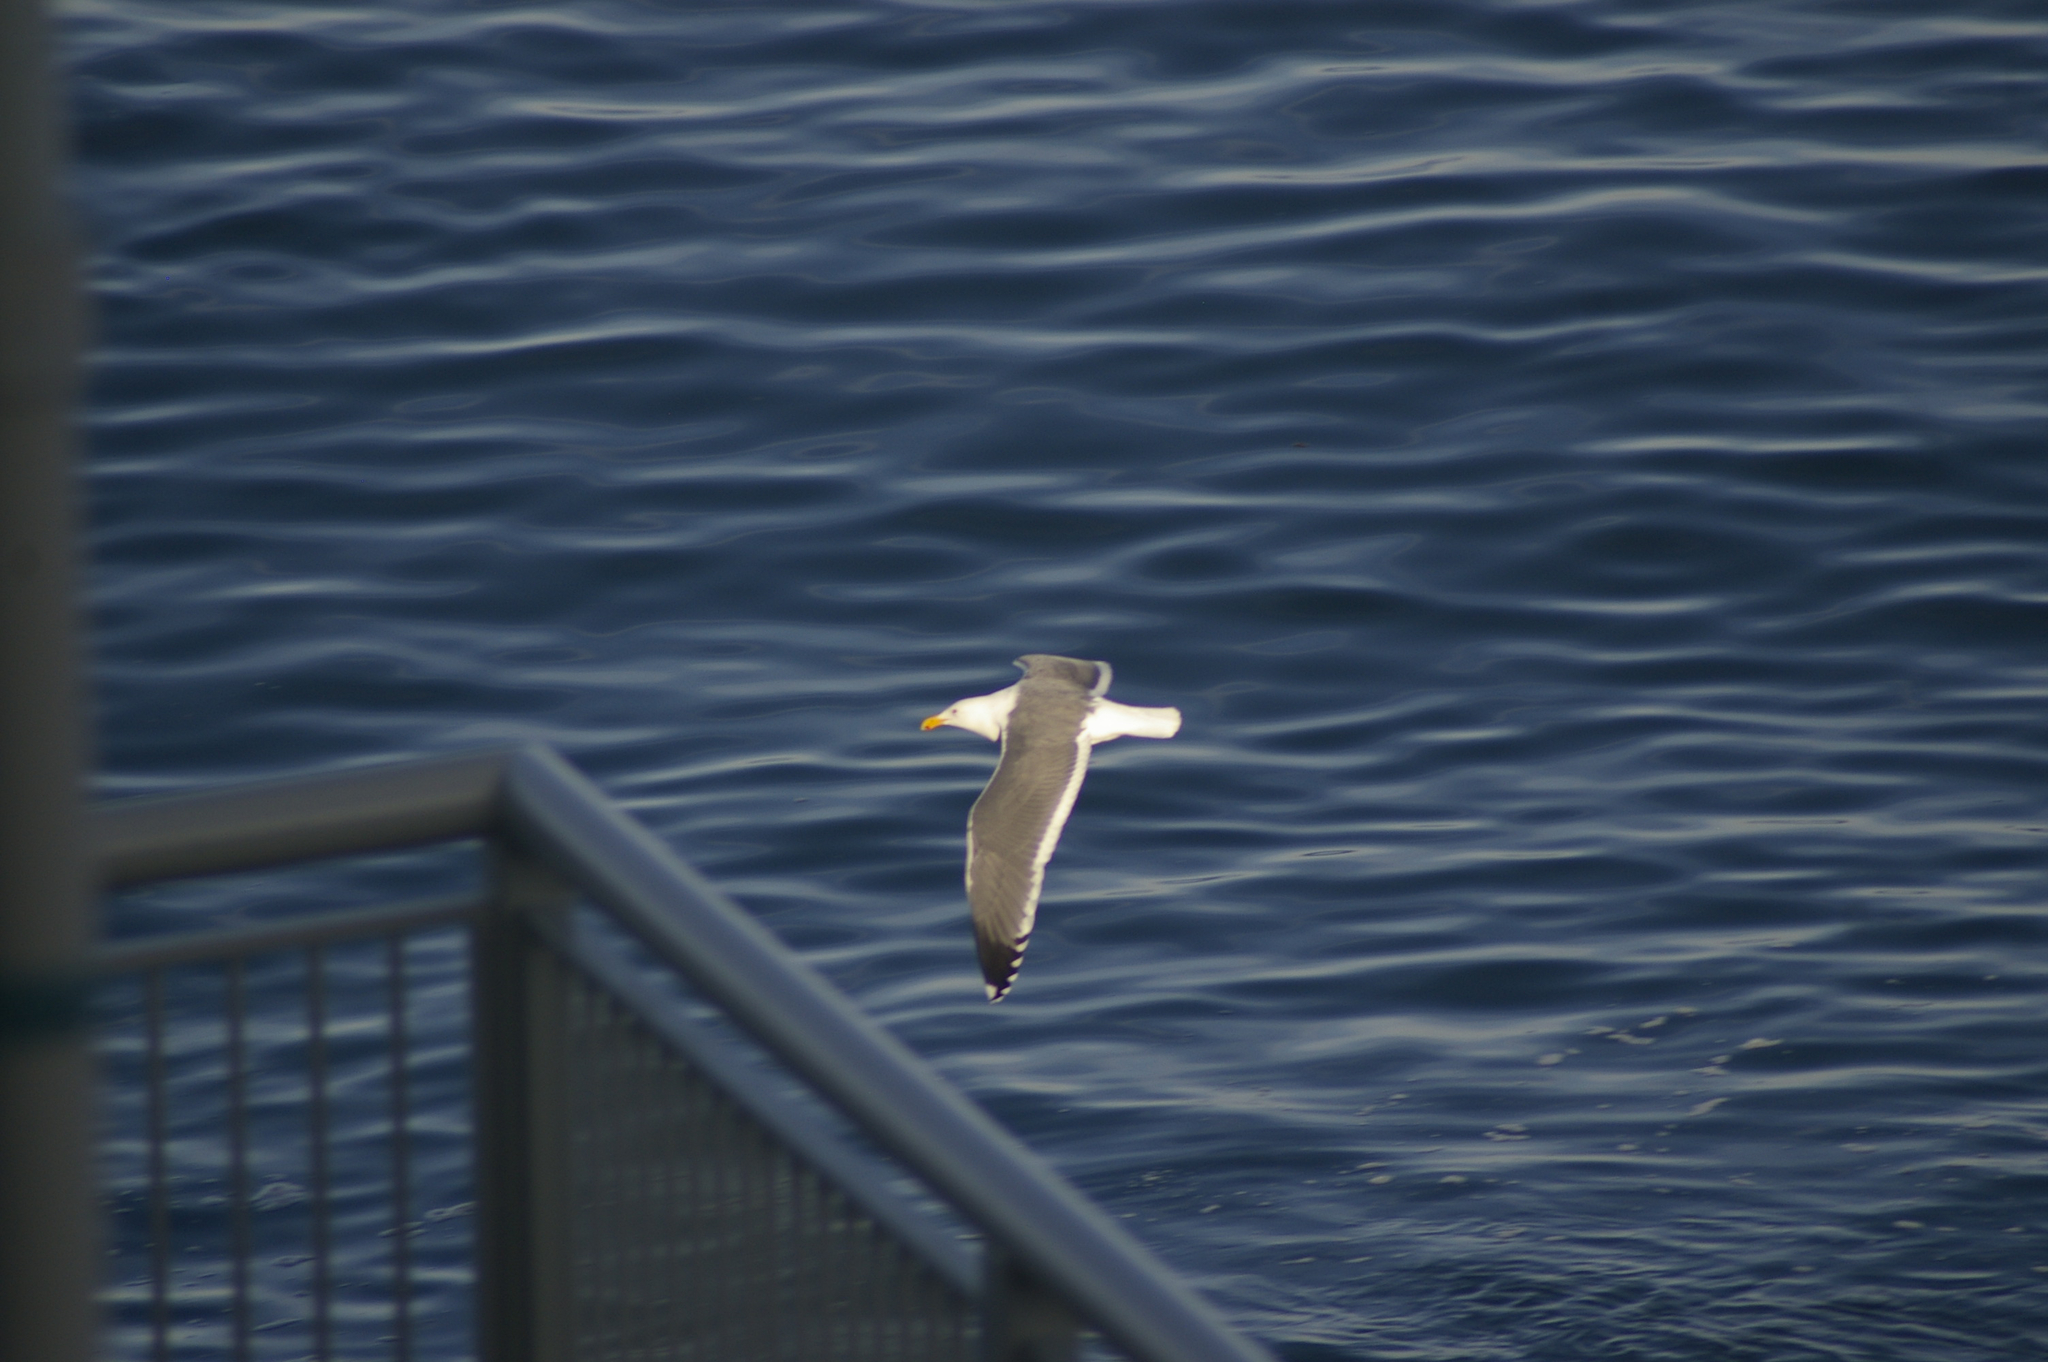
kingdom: Animalia
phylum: Chordata
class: Aves
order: Charadriiformes
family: Laridae
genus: Larus
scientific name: Larus occidentalis
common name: Western gull
